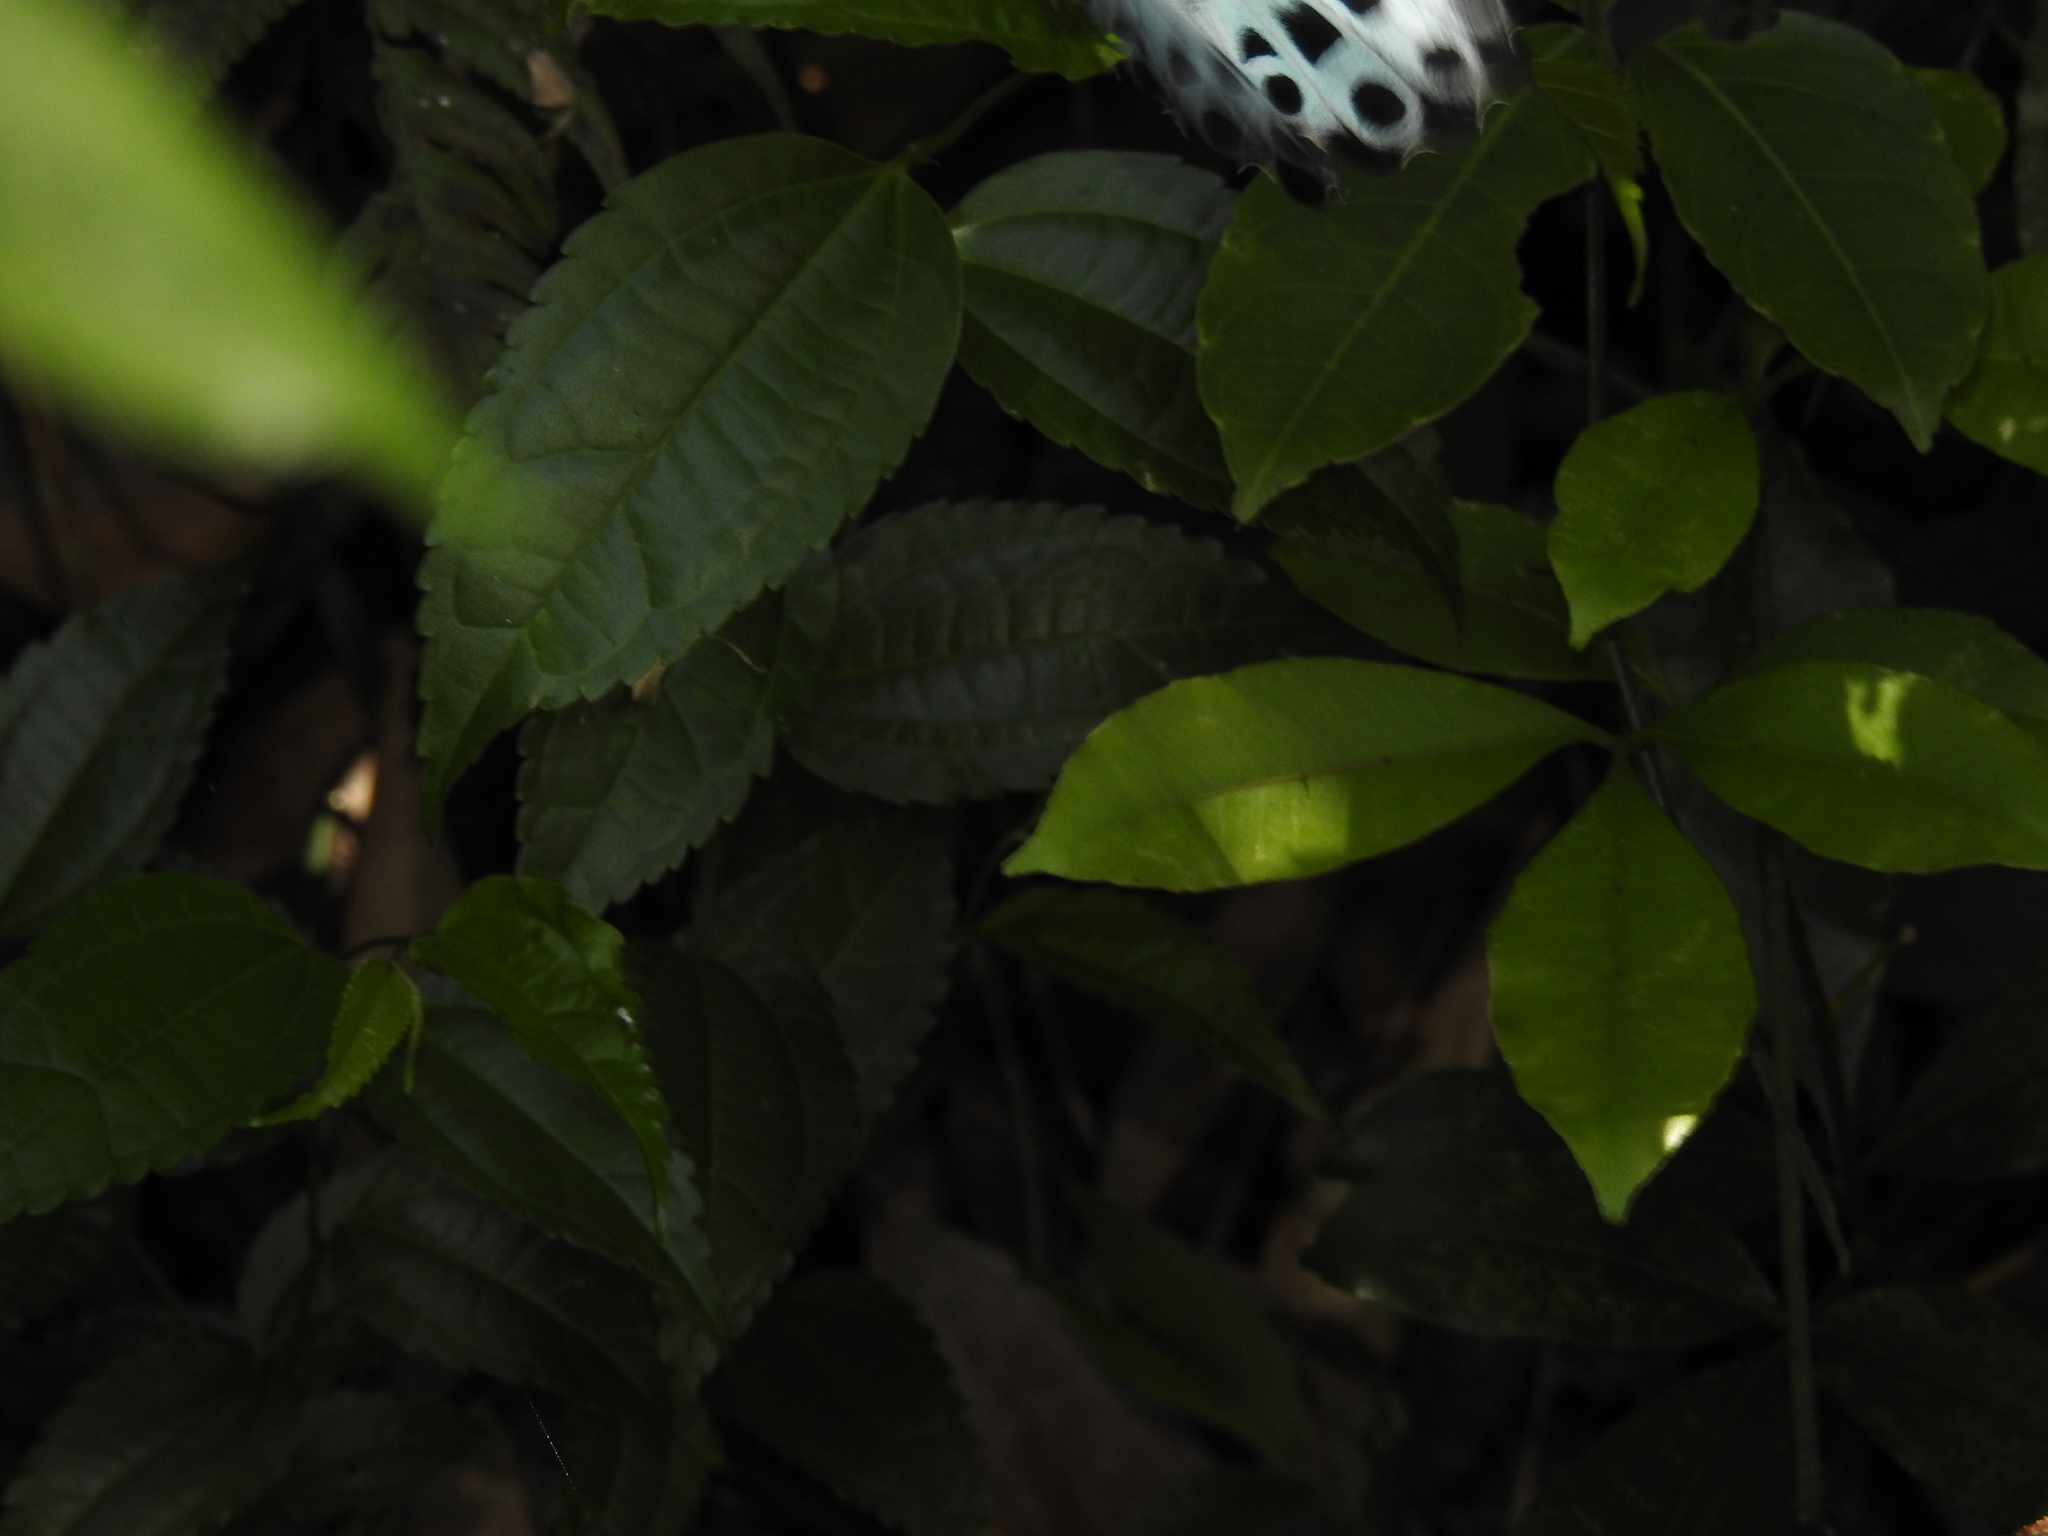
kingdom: Animalia
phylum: Arthropoda
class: Insecta
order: Lepidoptera
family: Papilionidae
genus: Papilio
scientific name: Papilio memnon
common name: Great mormon
